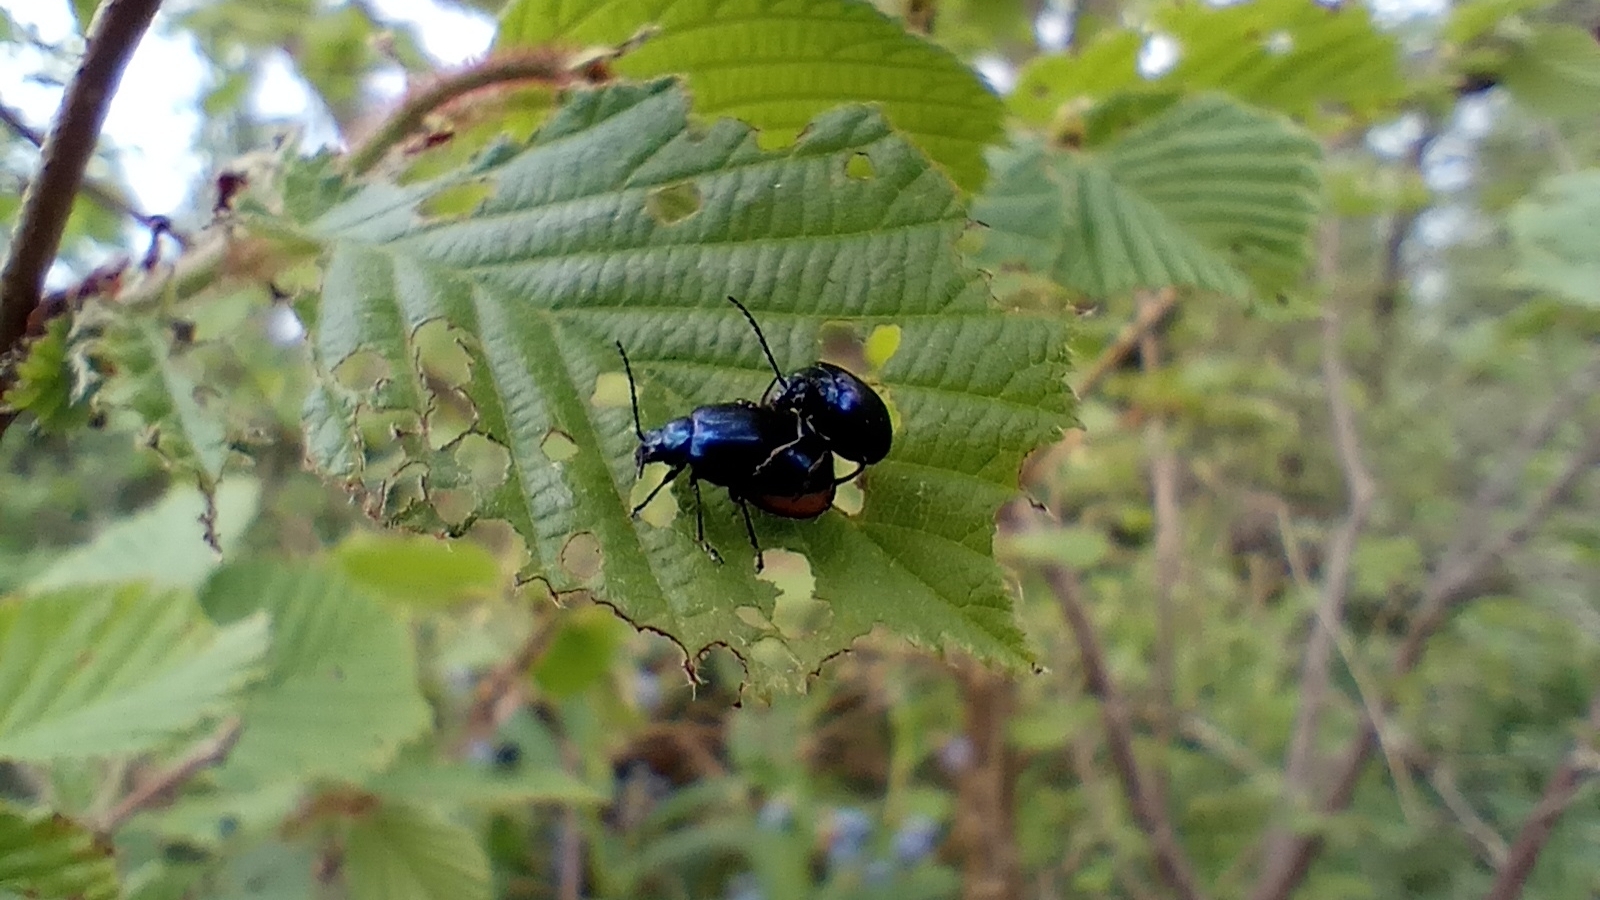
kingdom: Animalia
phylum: Arthropoda
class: Insecta
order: Coleoptera
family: Chrysomelidae
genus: Agelastica
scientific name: Agelastica alni
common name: Alder leaf beetle
